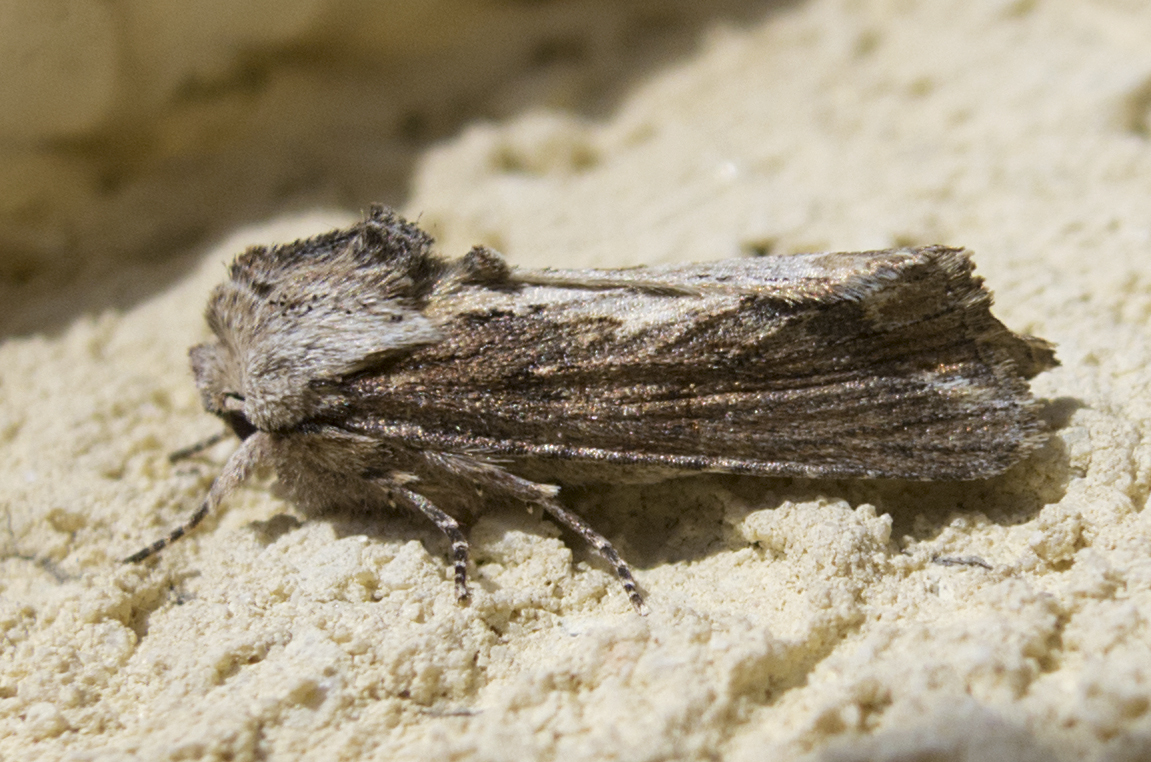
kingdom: Animalia
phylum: Arthropoda
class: Insecta
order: Lepidoptera
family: Noctuidae
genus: Egira
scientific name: Egira
